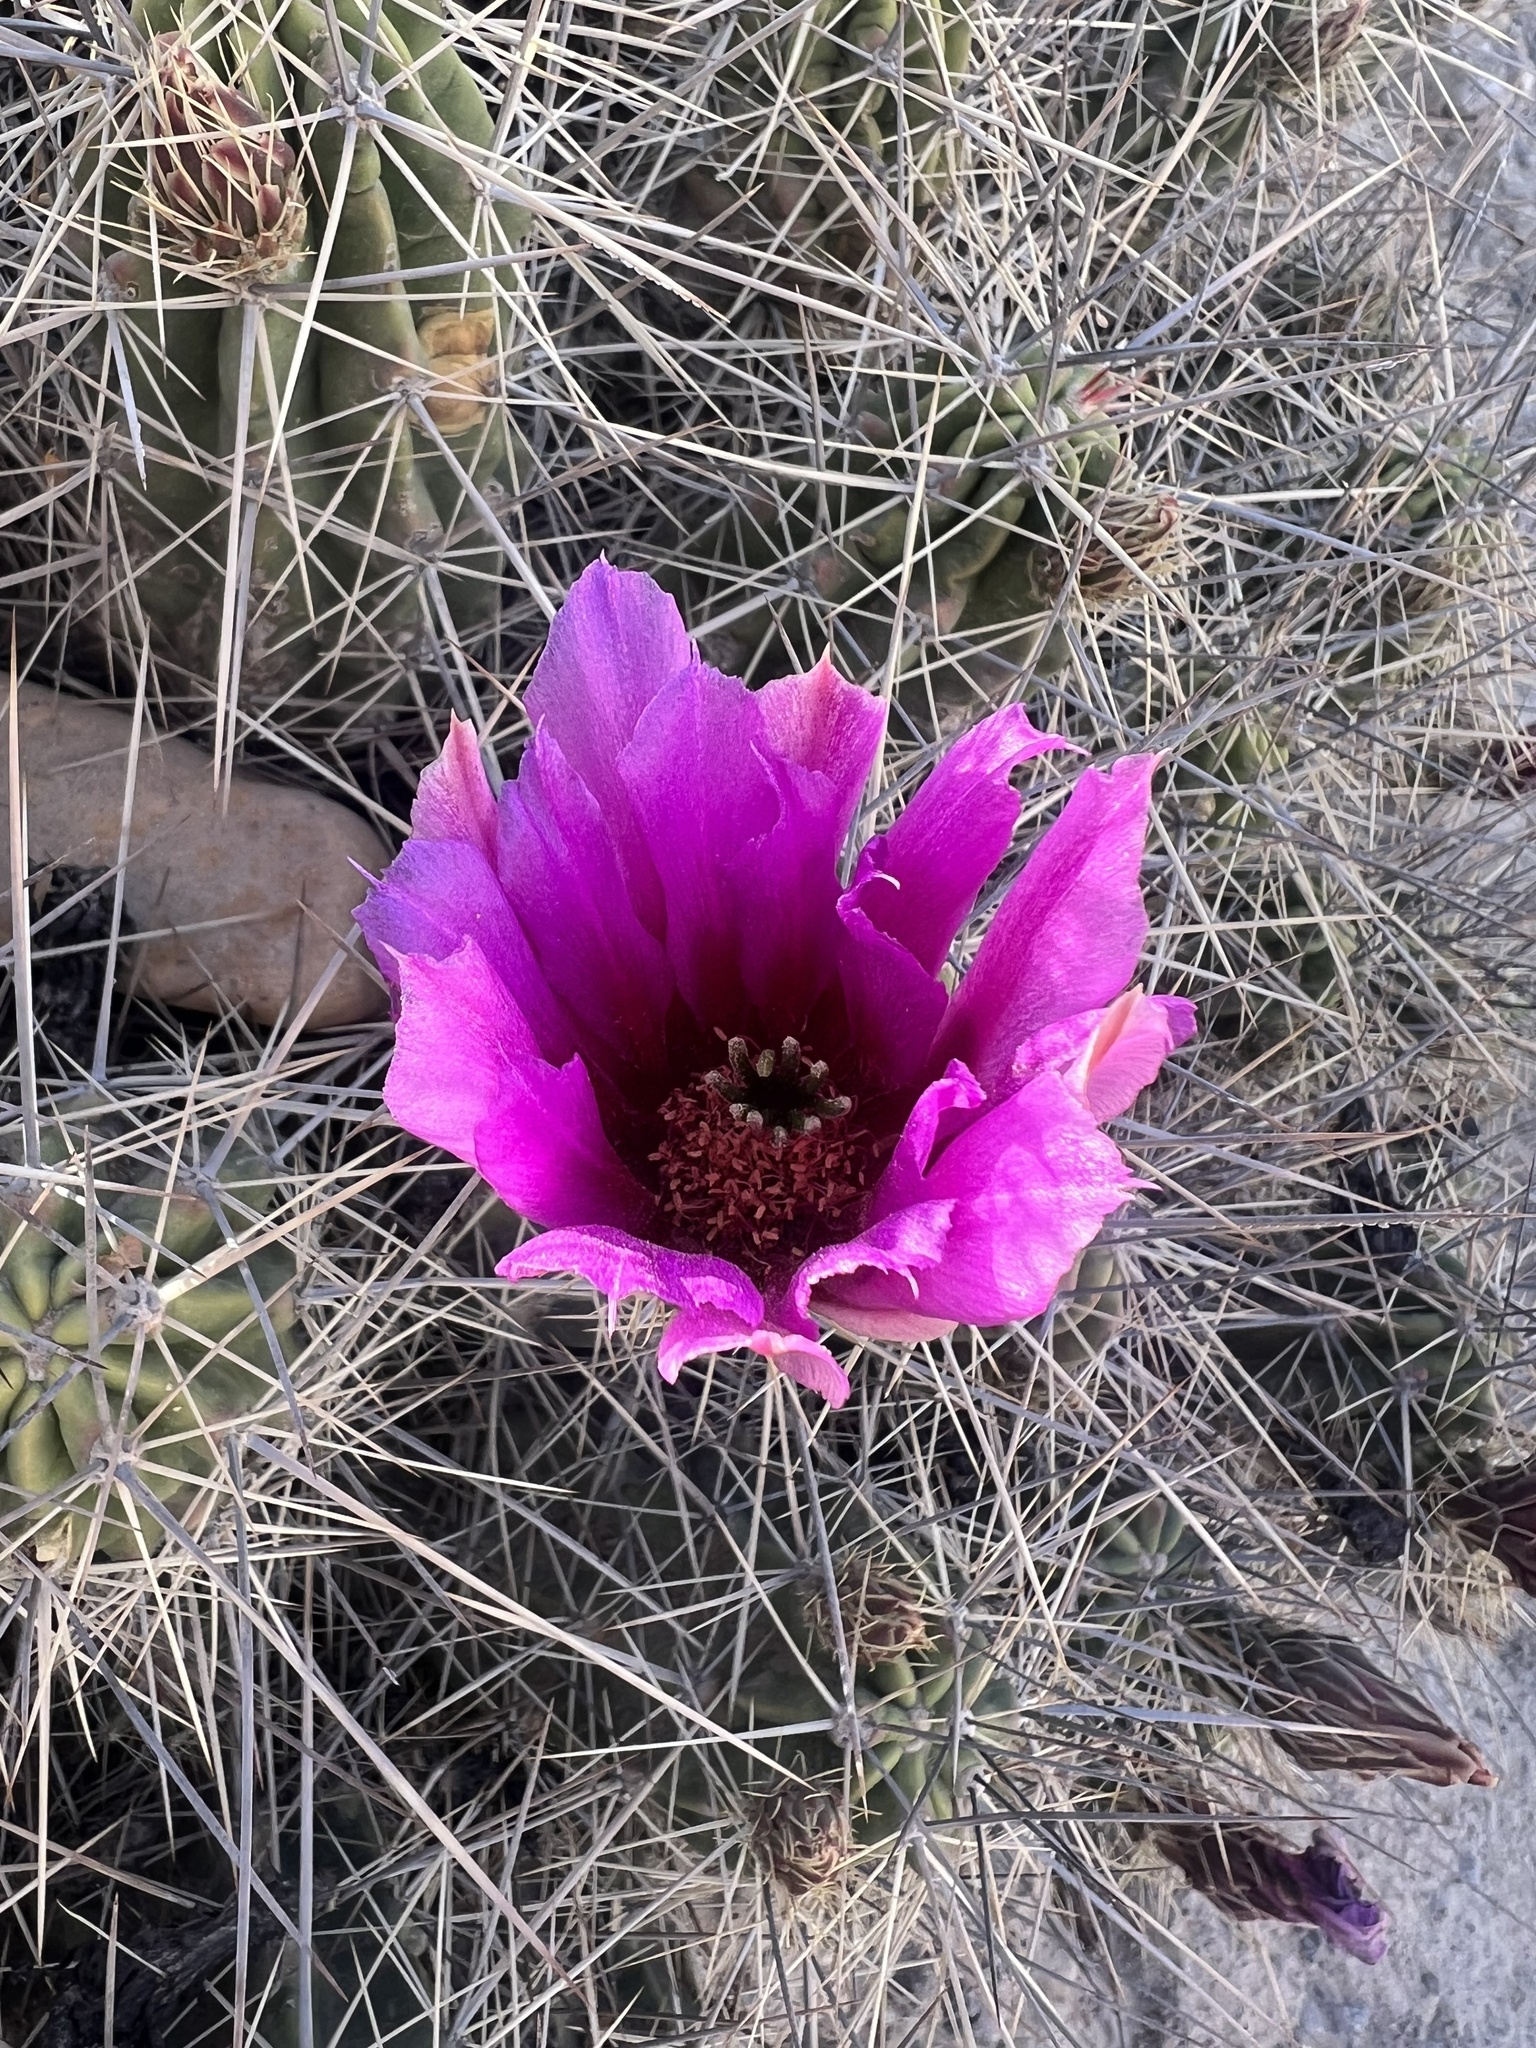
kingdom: Plantae
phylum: Tracheophyta
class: Magnoliopsida
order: Caryophyllales
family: Cactaceae
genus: Echinocereus
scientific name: Echinocereus enneacanthus
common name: Pitaya
